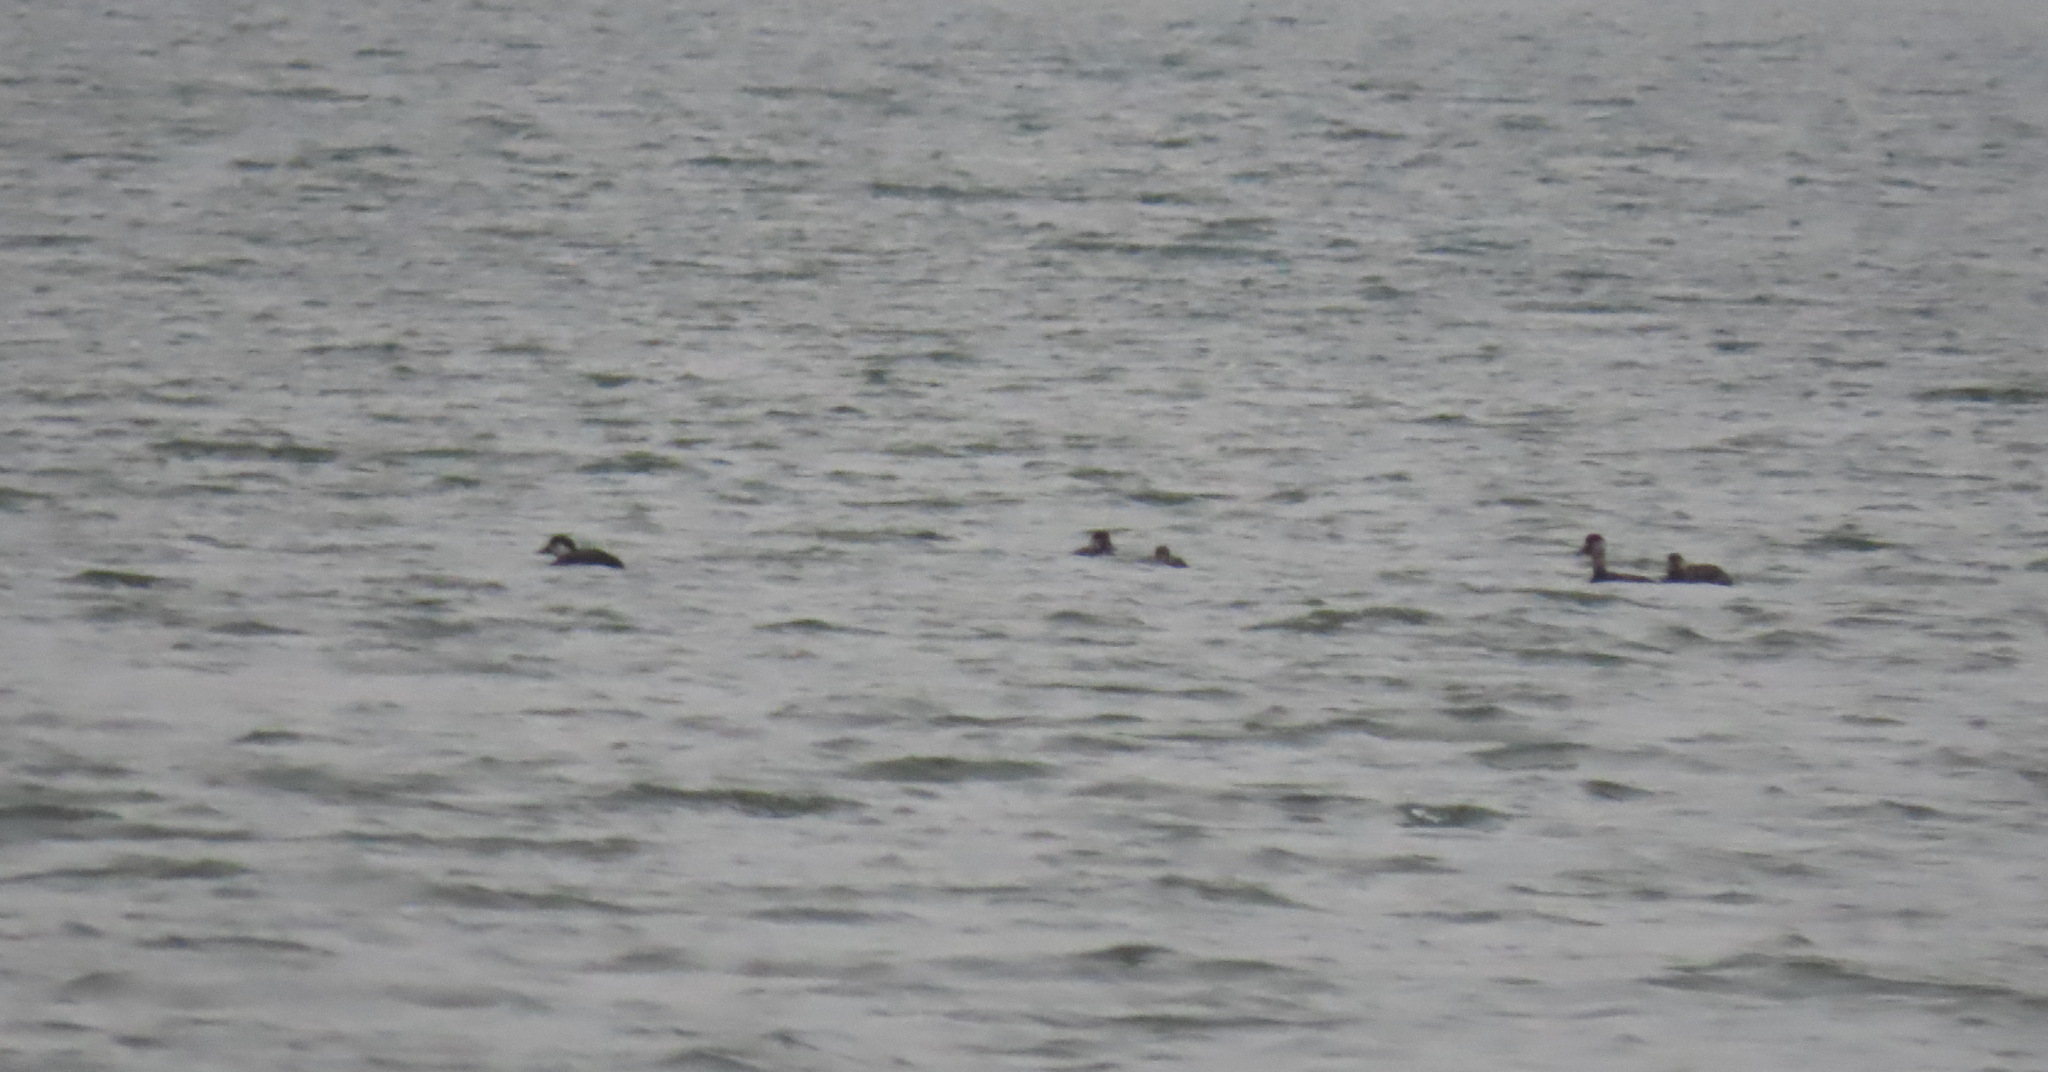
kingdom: Animalia
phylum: Chordata
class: Aves
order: Anseriformes
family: Anatidae
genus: Melanitta
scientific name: Melanitta nigra
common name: Common scoter
